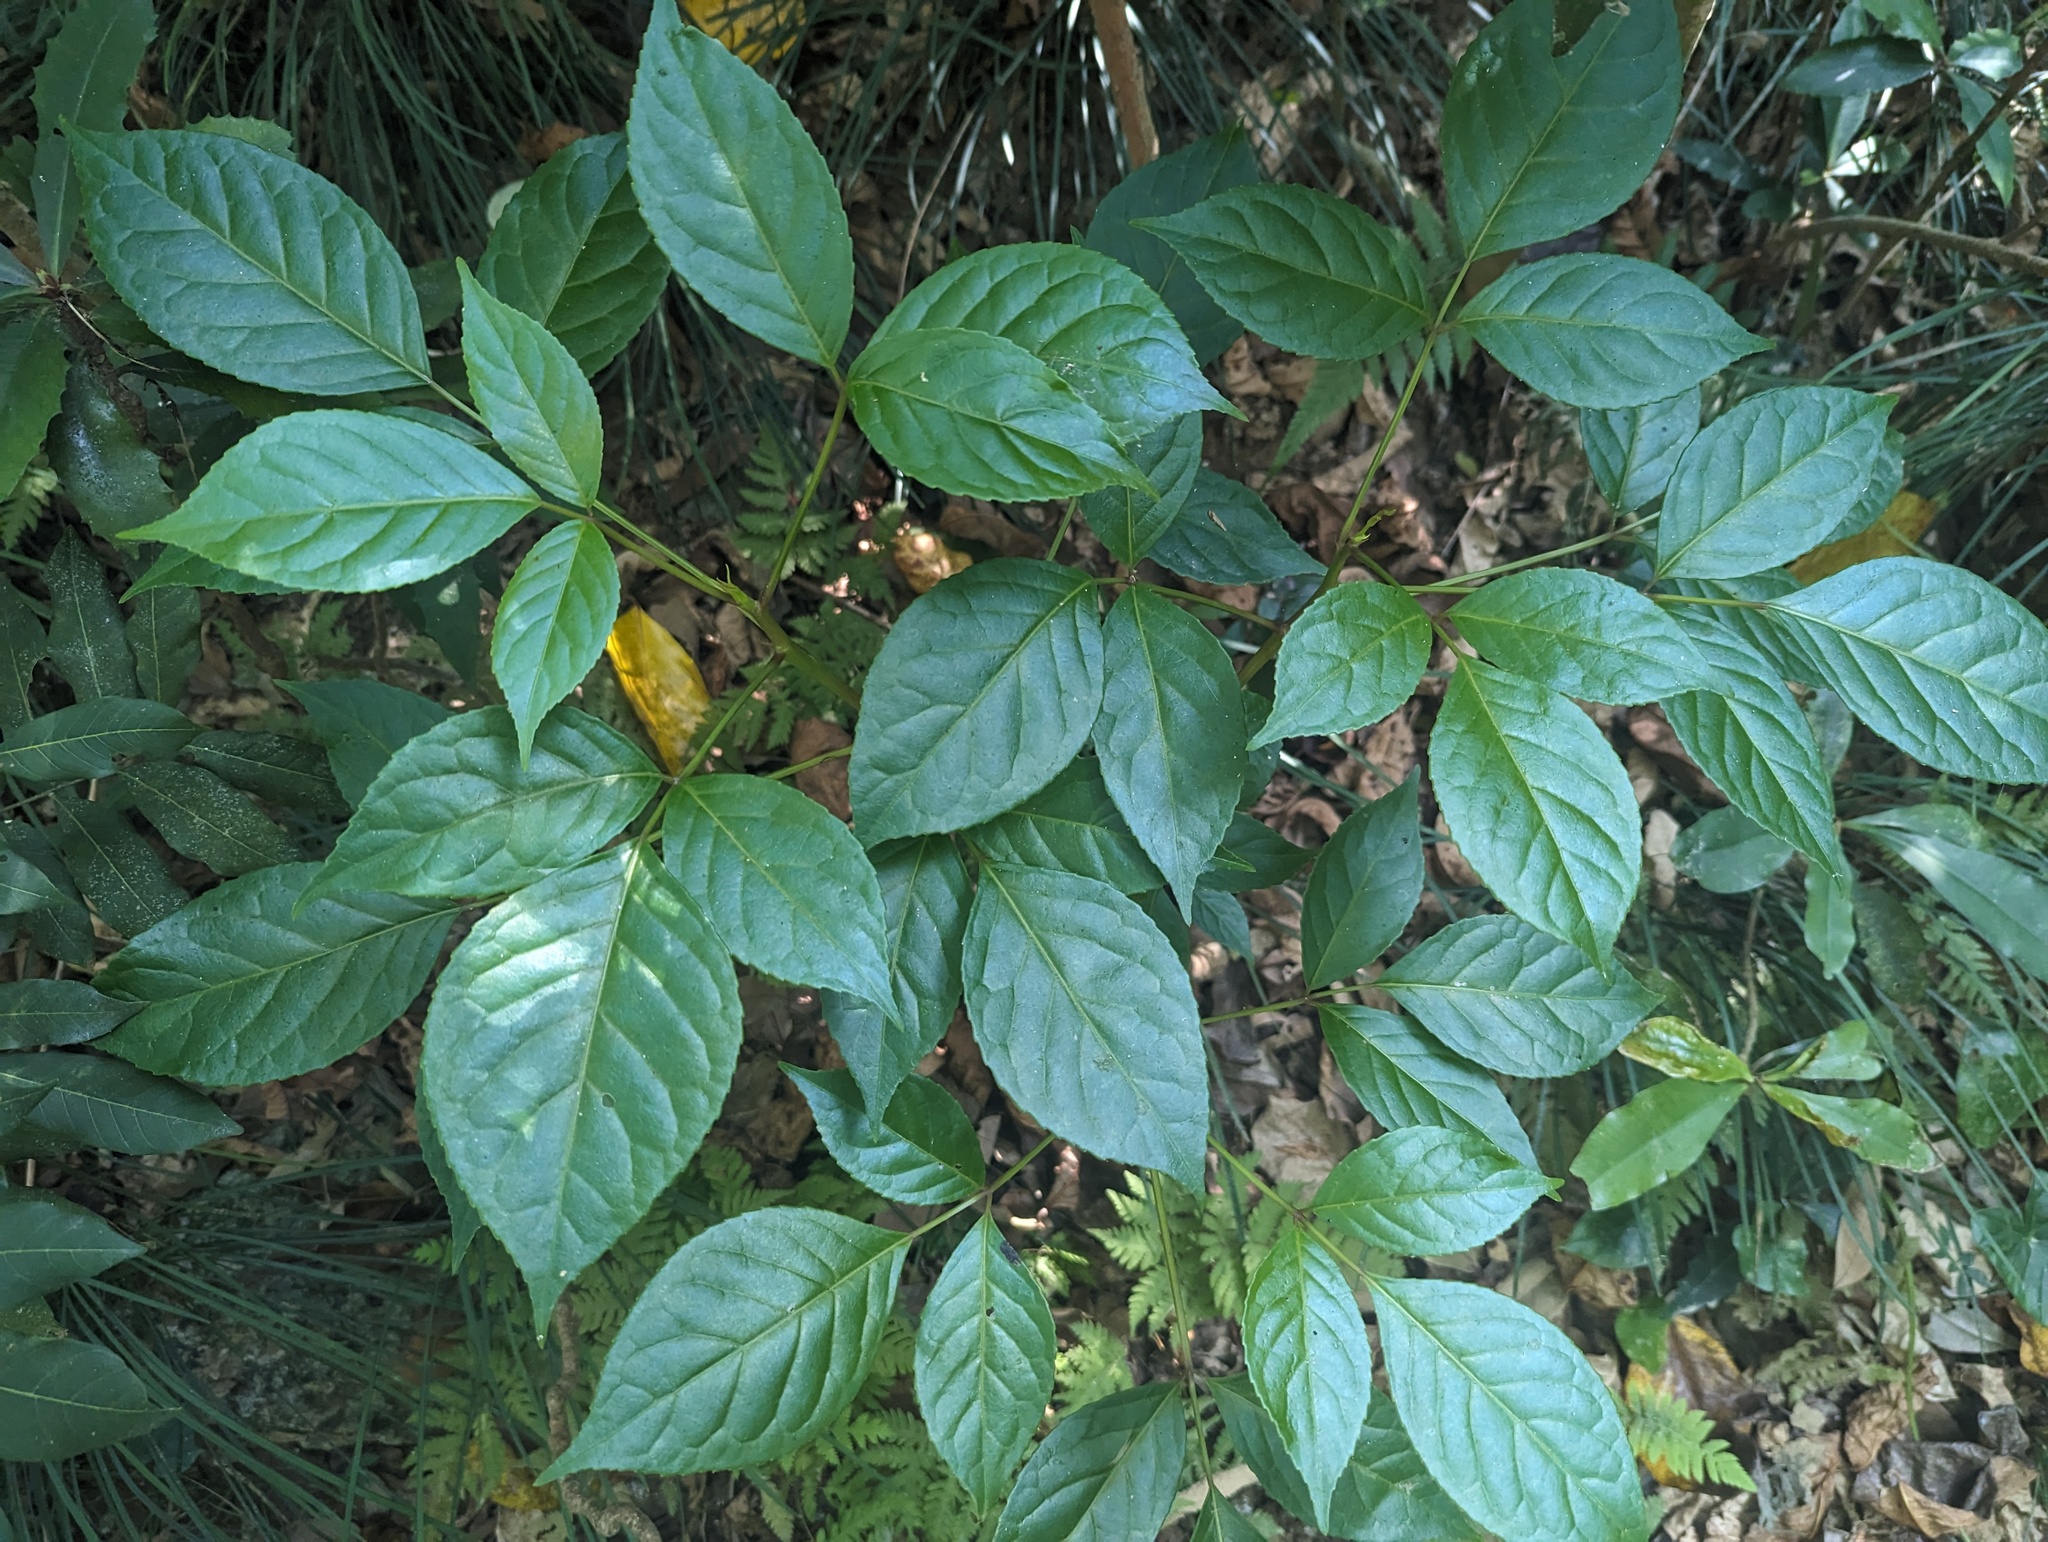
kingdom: Plantae
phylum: Tracheophyta
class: Magnoliopsida
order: Malpighiales
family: Phyllanthaceae
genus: Bischofia
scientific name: Bischofia javanica
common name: Javanese bishopwood
